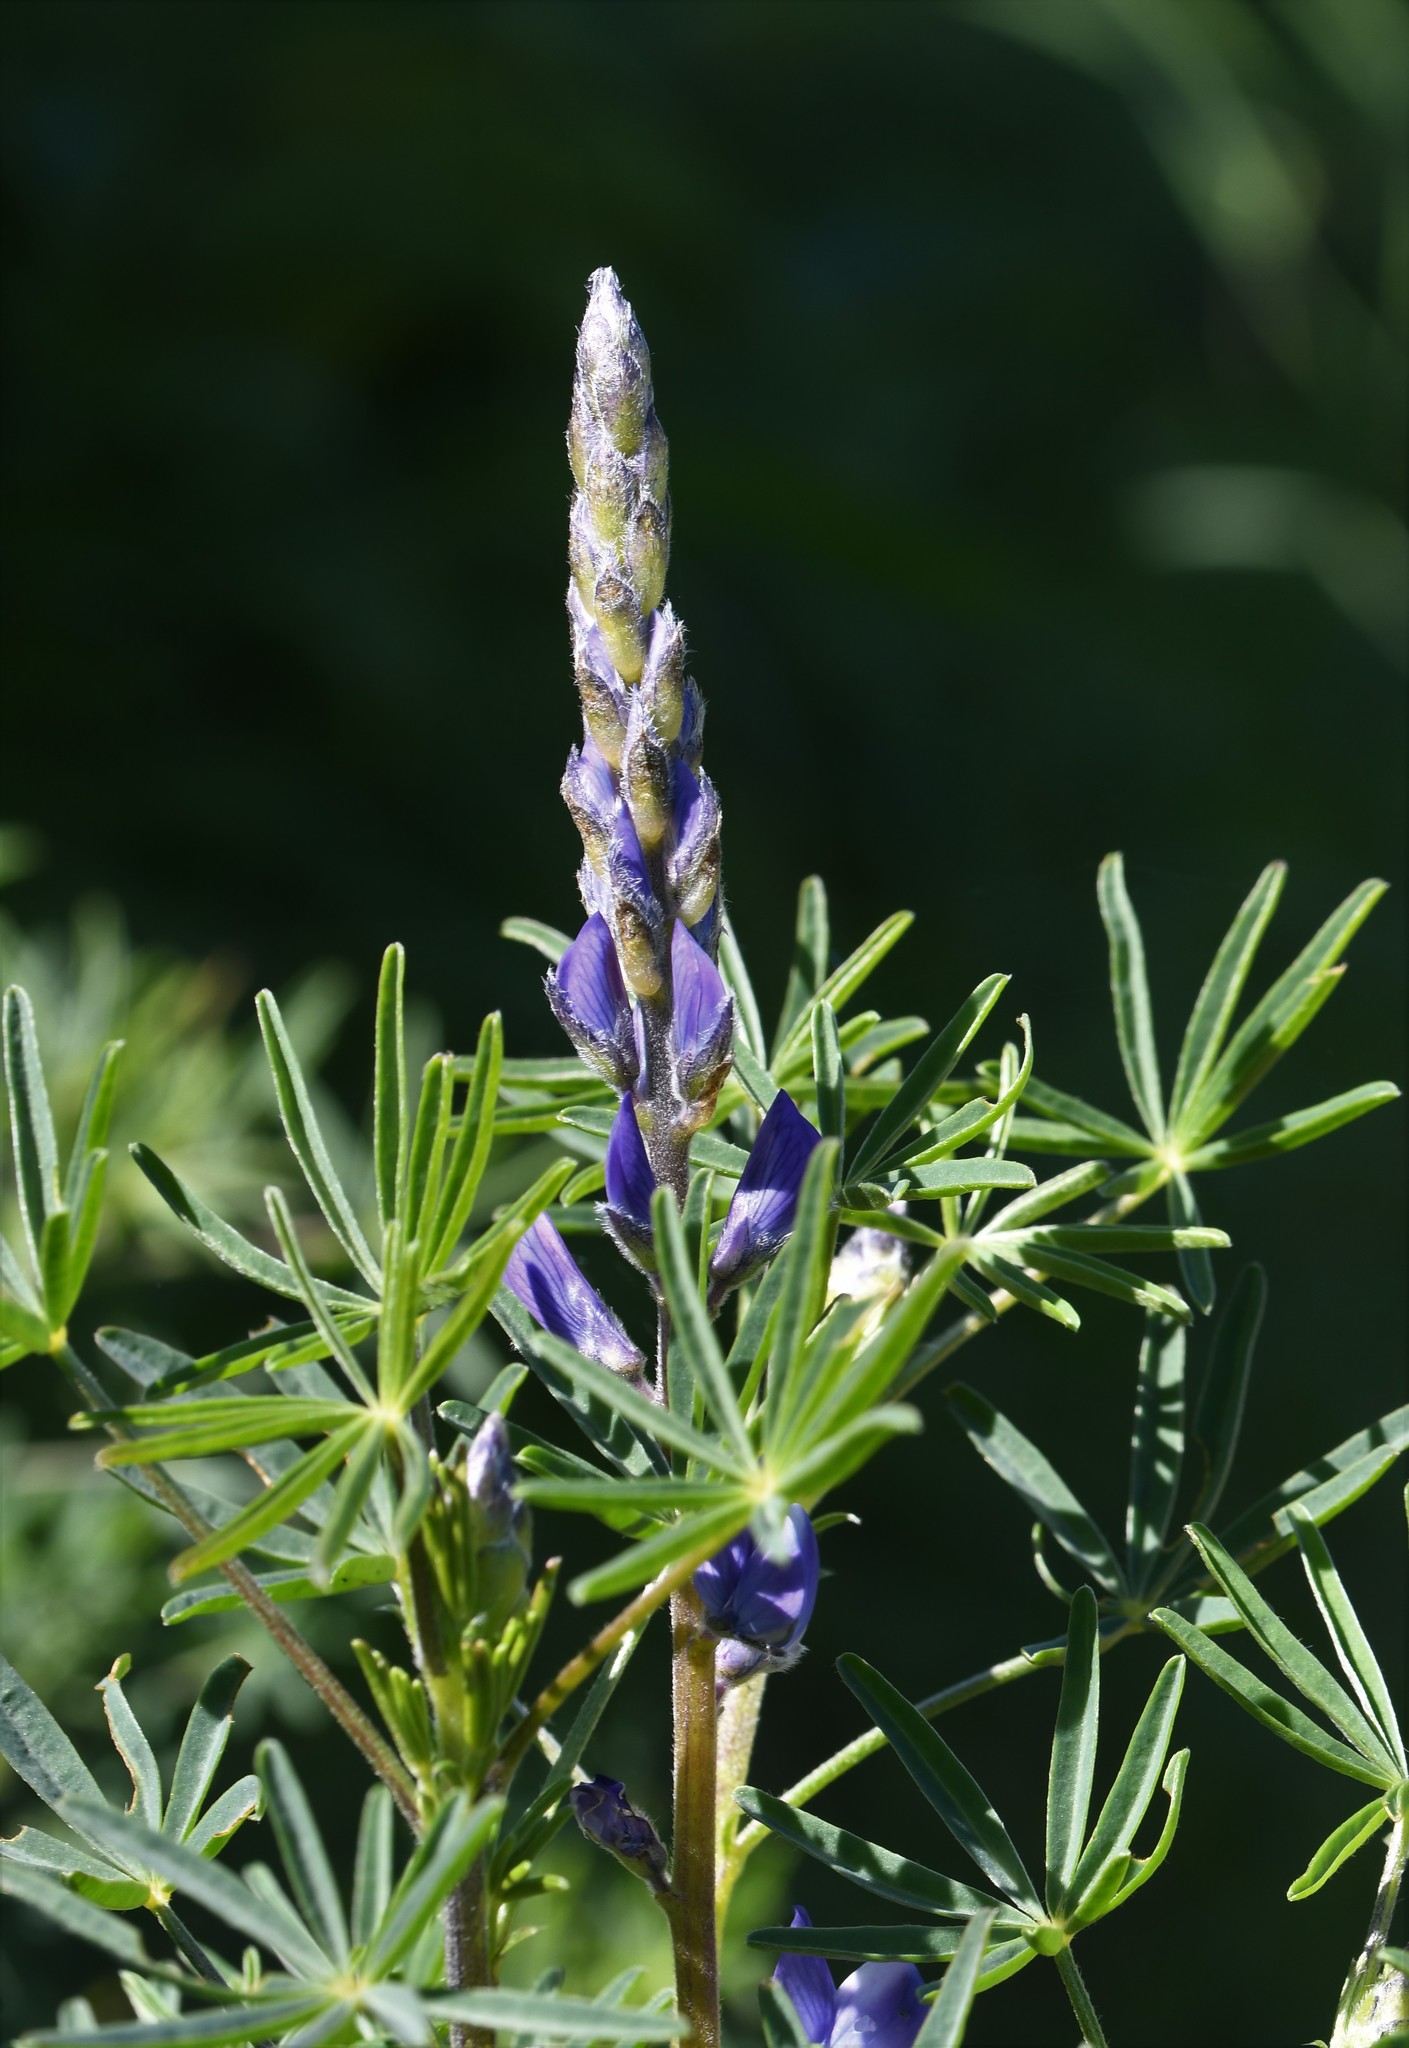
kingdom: Plantae
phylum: Tracheophyta
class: Magnoliopsida
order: Fabales
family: Fabaceae
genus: Lupinus
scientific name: Lupinus angustifolius
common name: Narrow-leaved lupin
